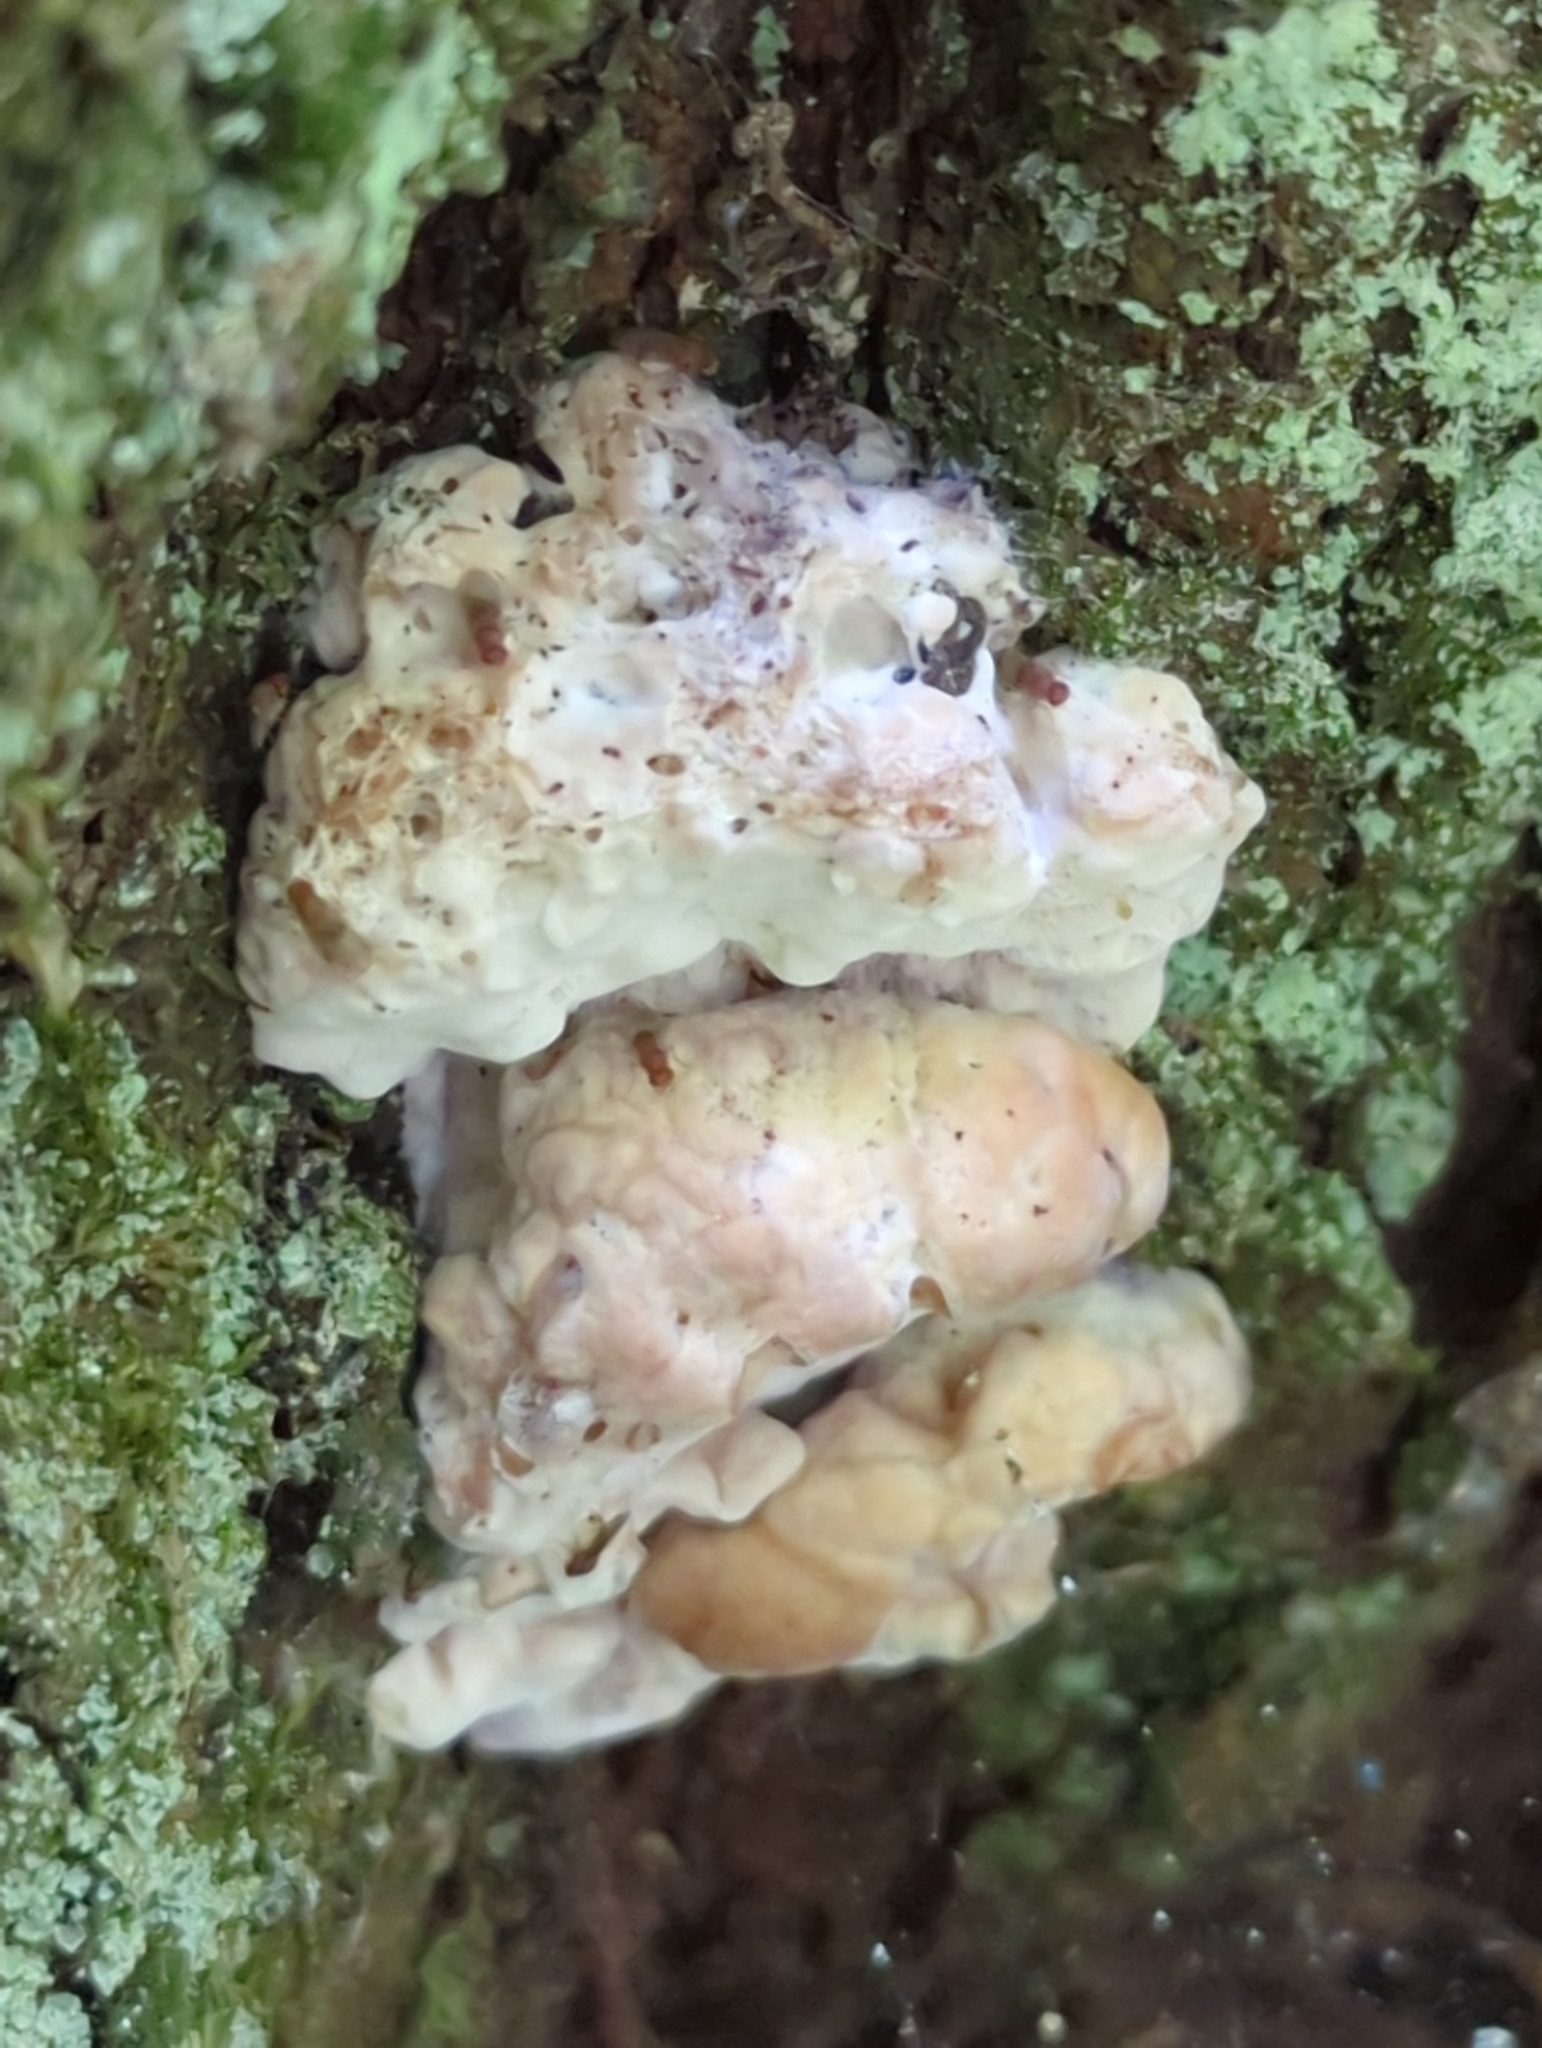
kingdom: Fungi
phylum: Basidiomycota
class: Agaricomycetes
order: Polyporales
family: Fomitopsidaceae
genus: Niveoporofomes
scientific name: Niveoporofomes spraguei
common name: Green cheese polypore
